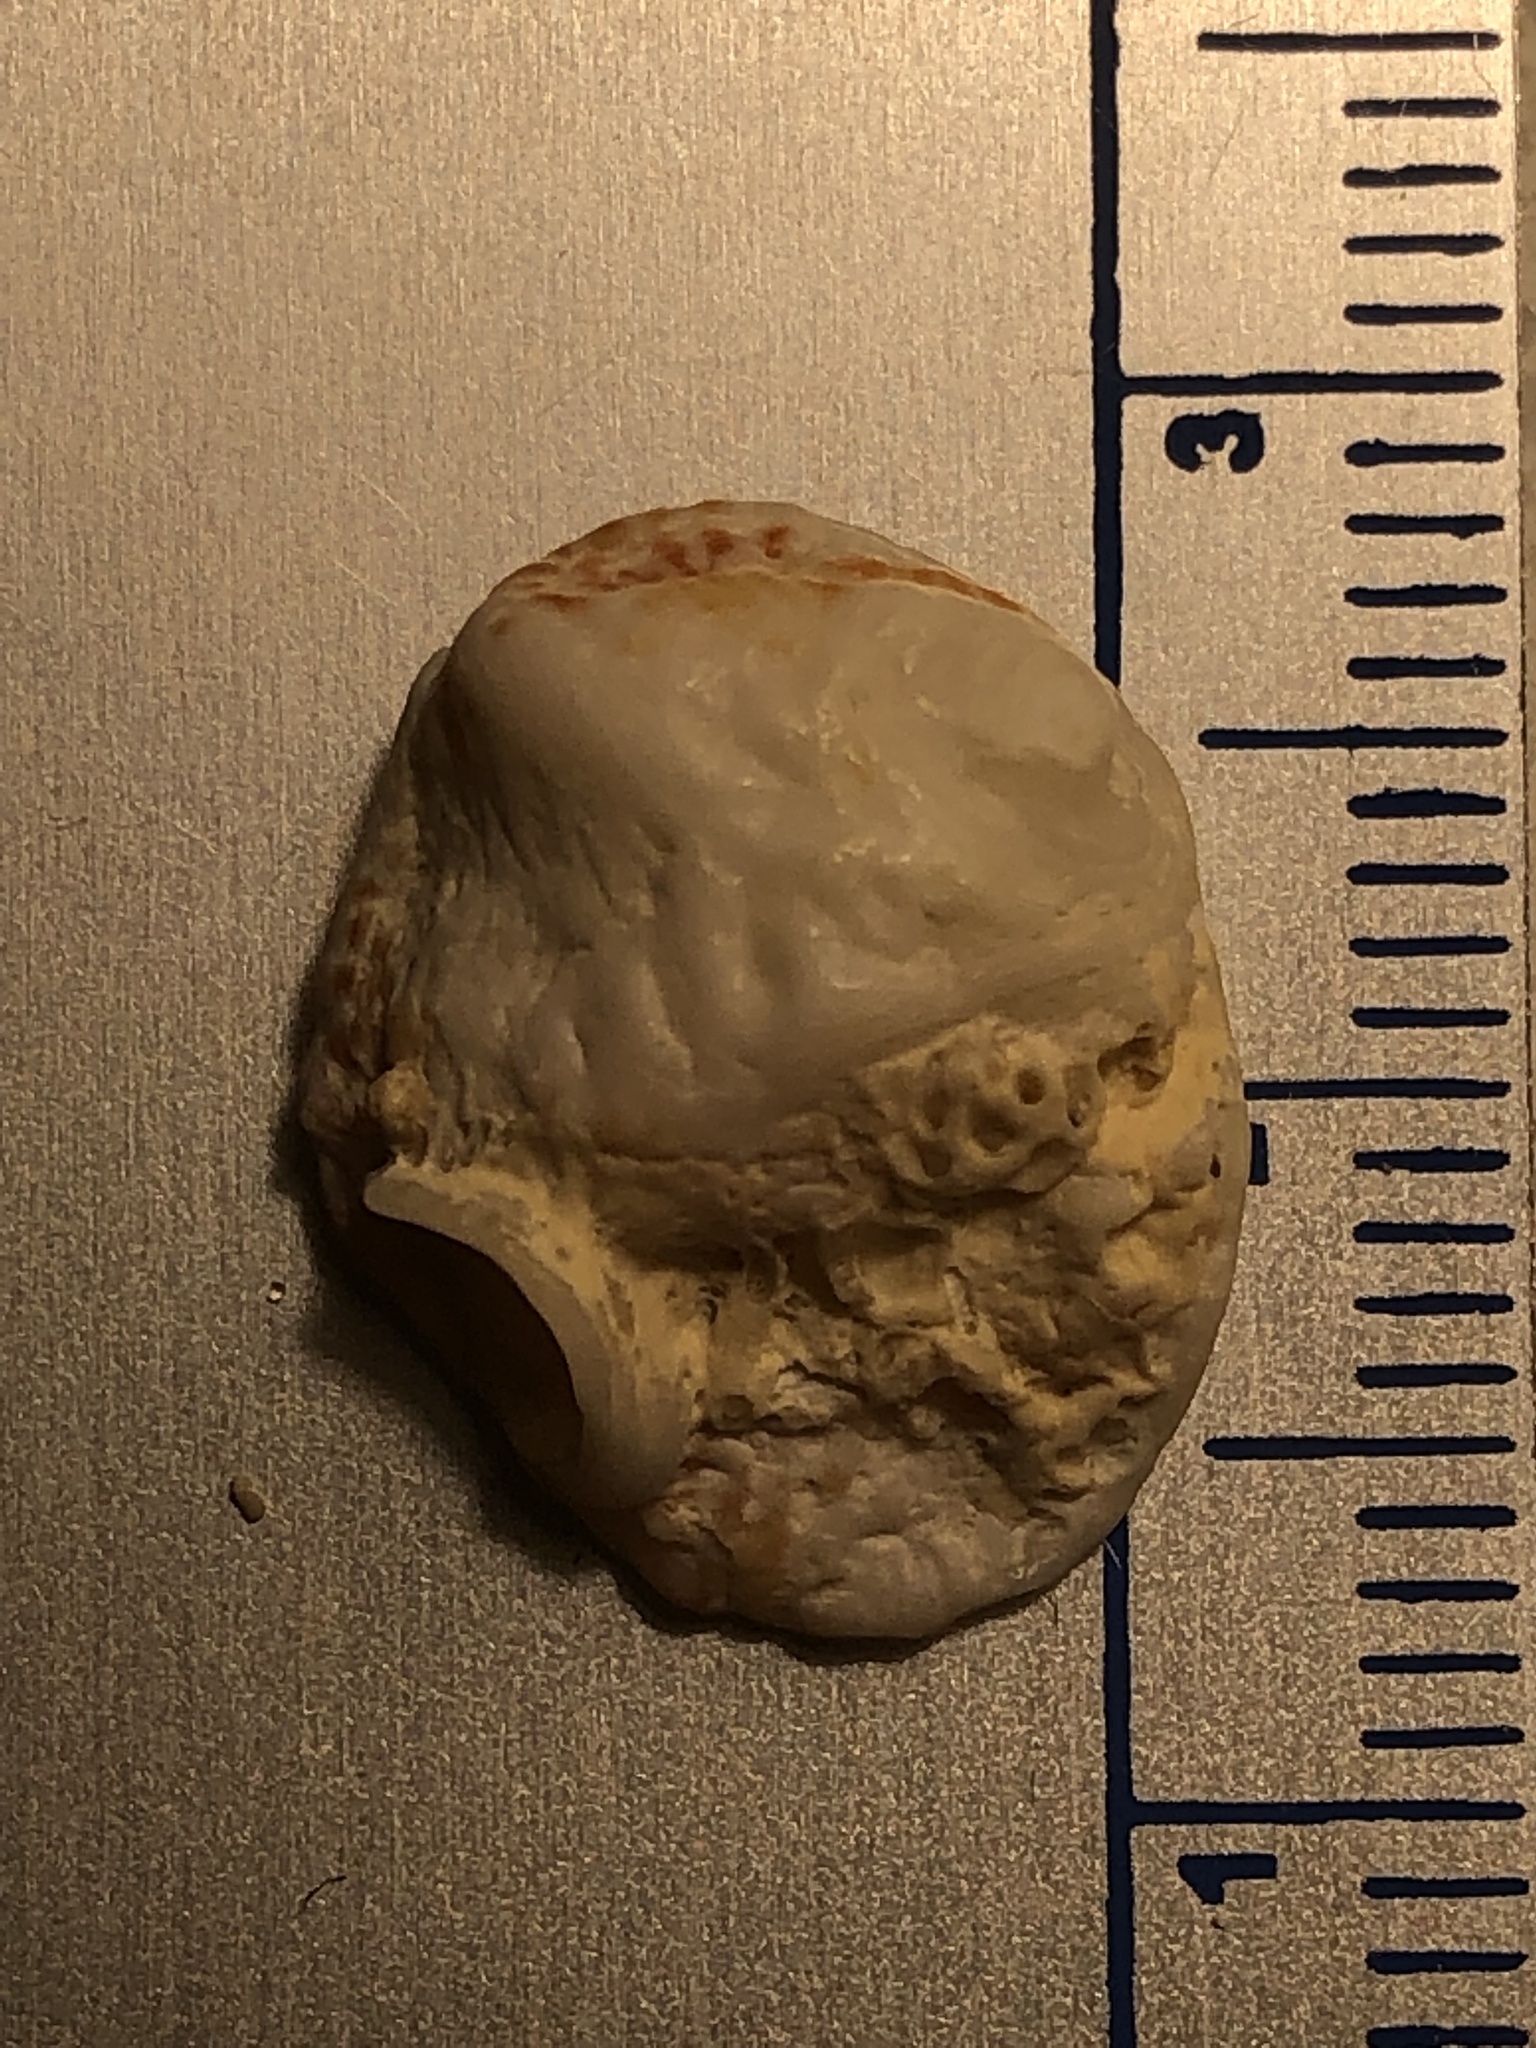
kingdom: Animalia
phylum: Mollusca
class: Bivalvia
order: Venerida
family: Chamidae
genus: Chama
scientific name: Chama congregata
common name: Corrugate jewelbox
